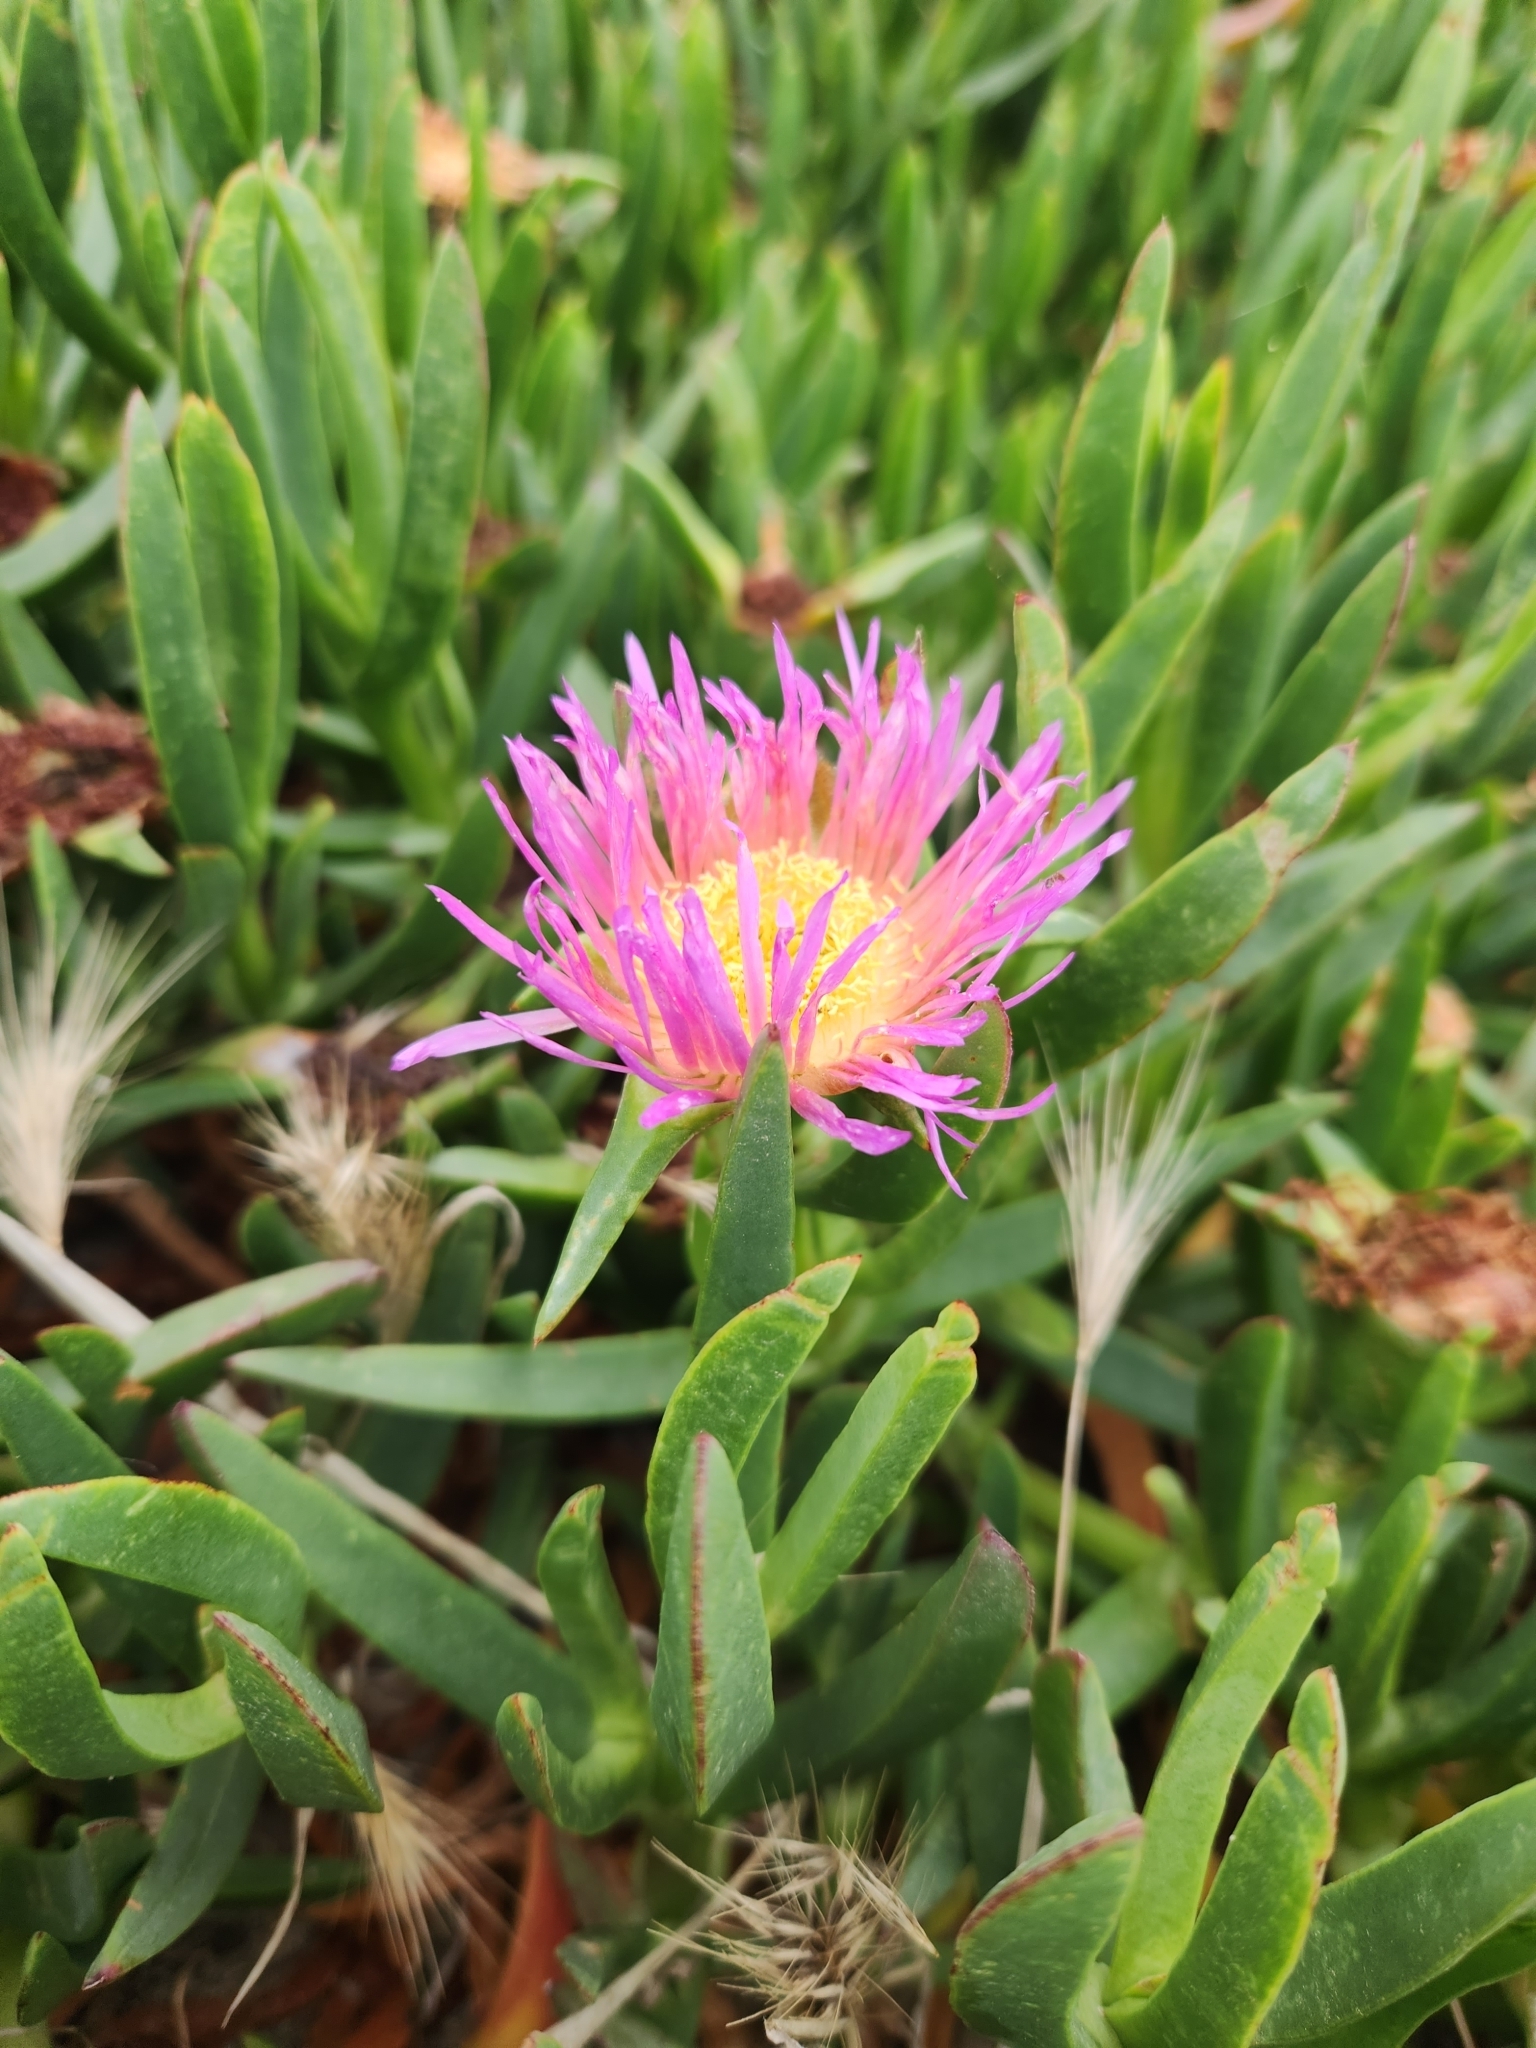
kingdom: Plantae
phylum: Tracheophyta
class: Magnoliopsida
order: Caryophyllales
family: Aizoaceae
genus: Carpobrotus
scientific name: Carpobrotus chilensis
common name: Sea fig
